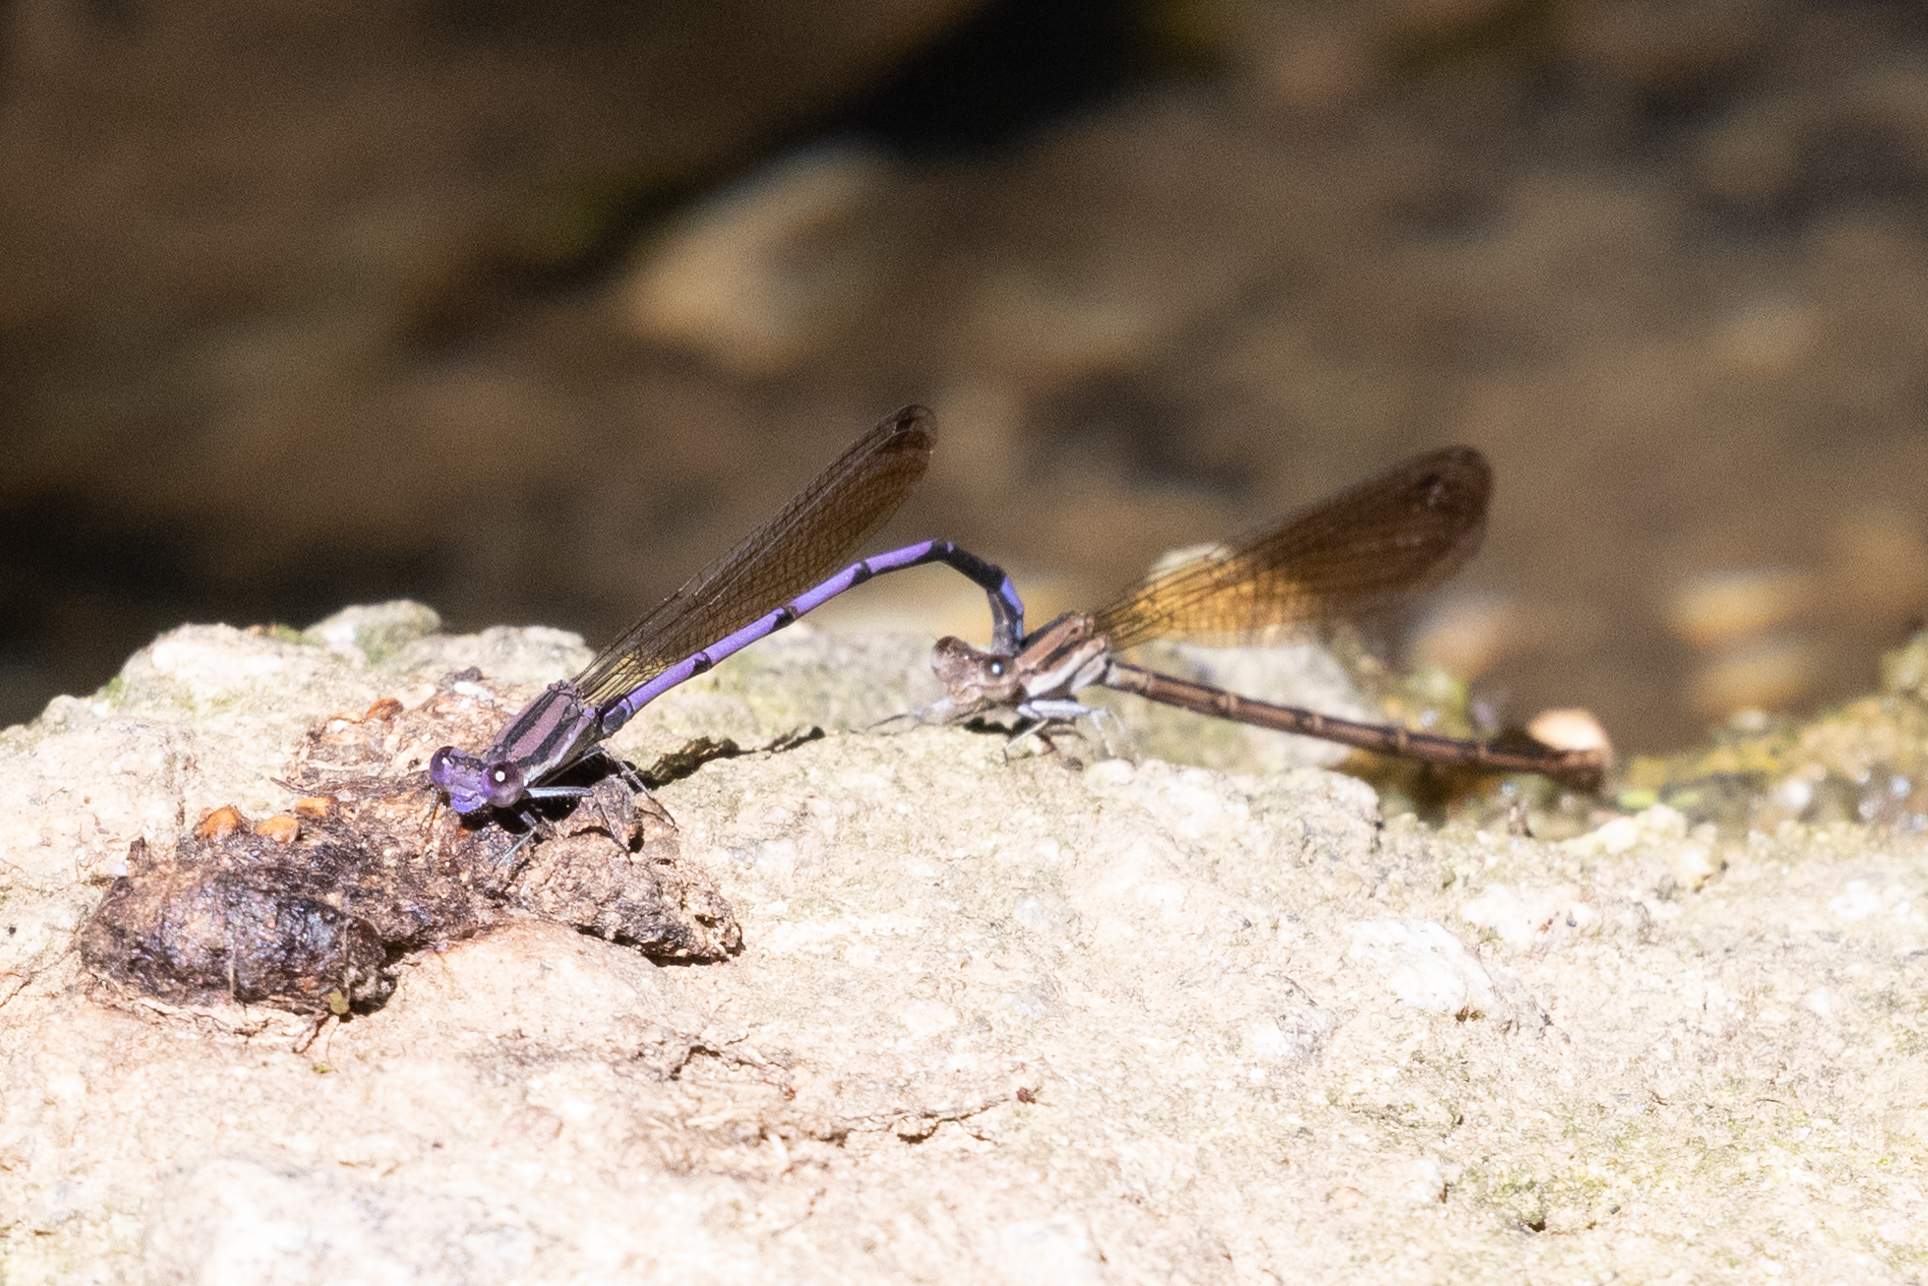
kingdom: Animalia
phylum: Arthropoda
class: Insecta
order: Odonata
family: Coenagrionidae
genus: Argia
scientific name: Argia fumipennis
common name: Variable dancer
